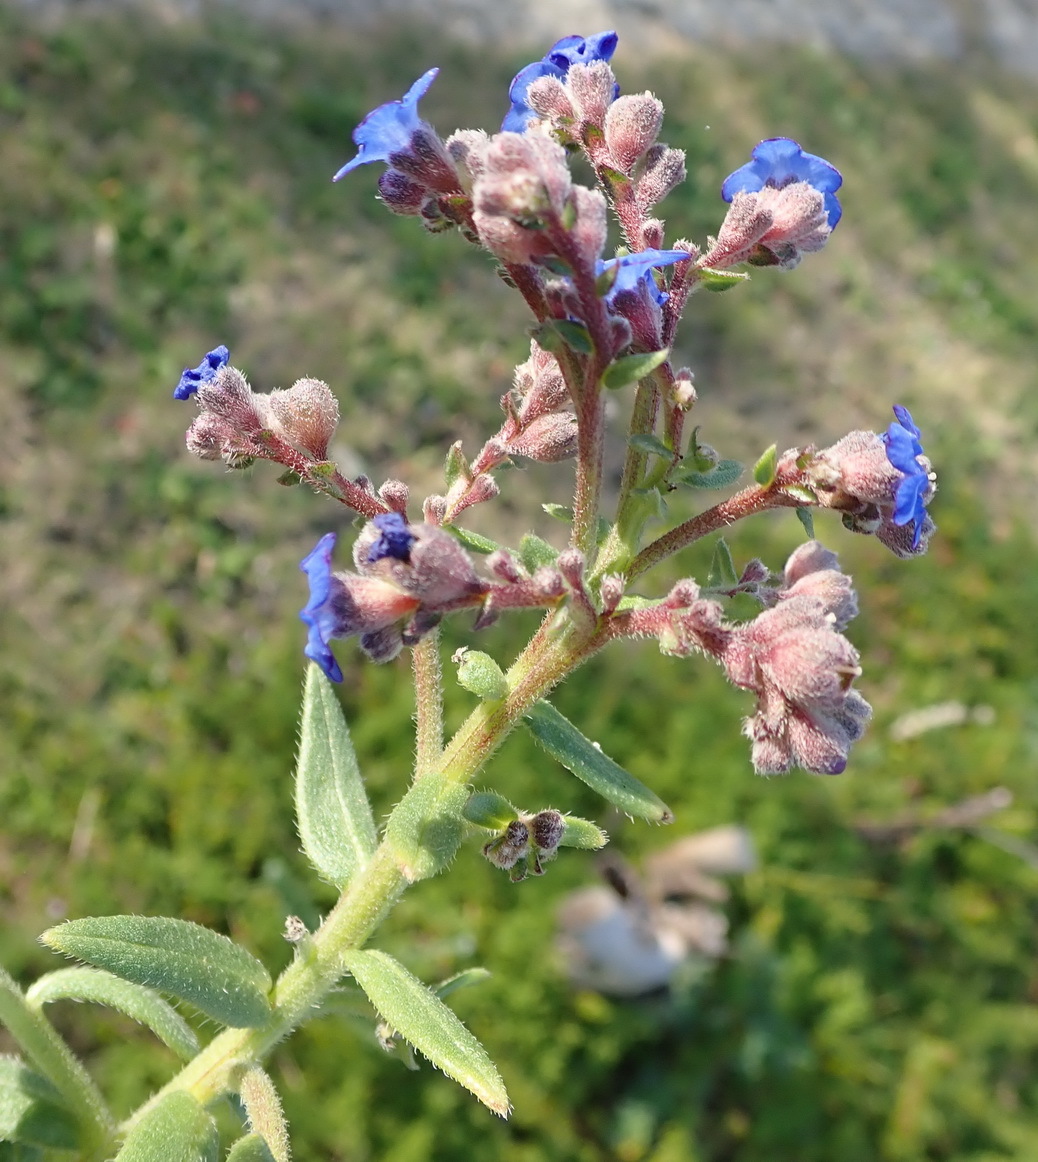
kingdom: Plantae
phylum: Tracheophyta
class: Magnoliopsida
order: Boraginales
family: Boraginaceae
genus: Anchusa
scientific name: Anchusa capensis
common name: Cape bugloss
